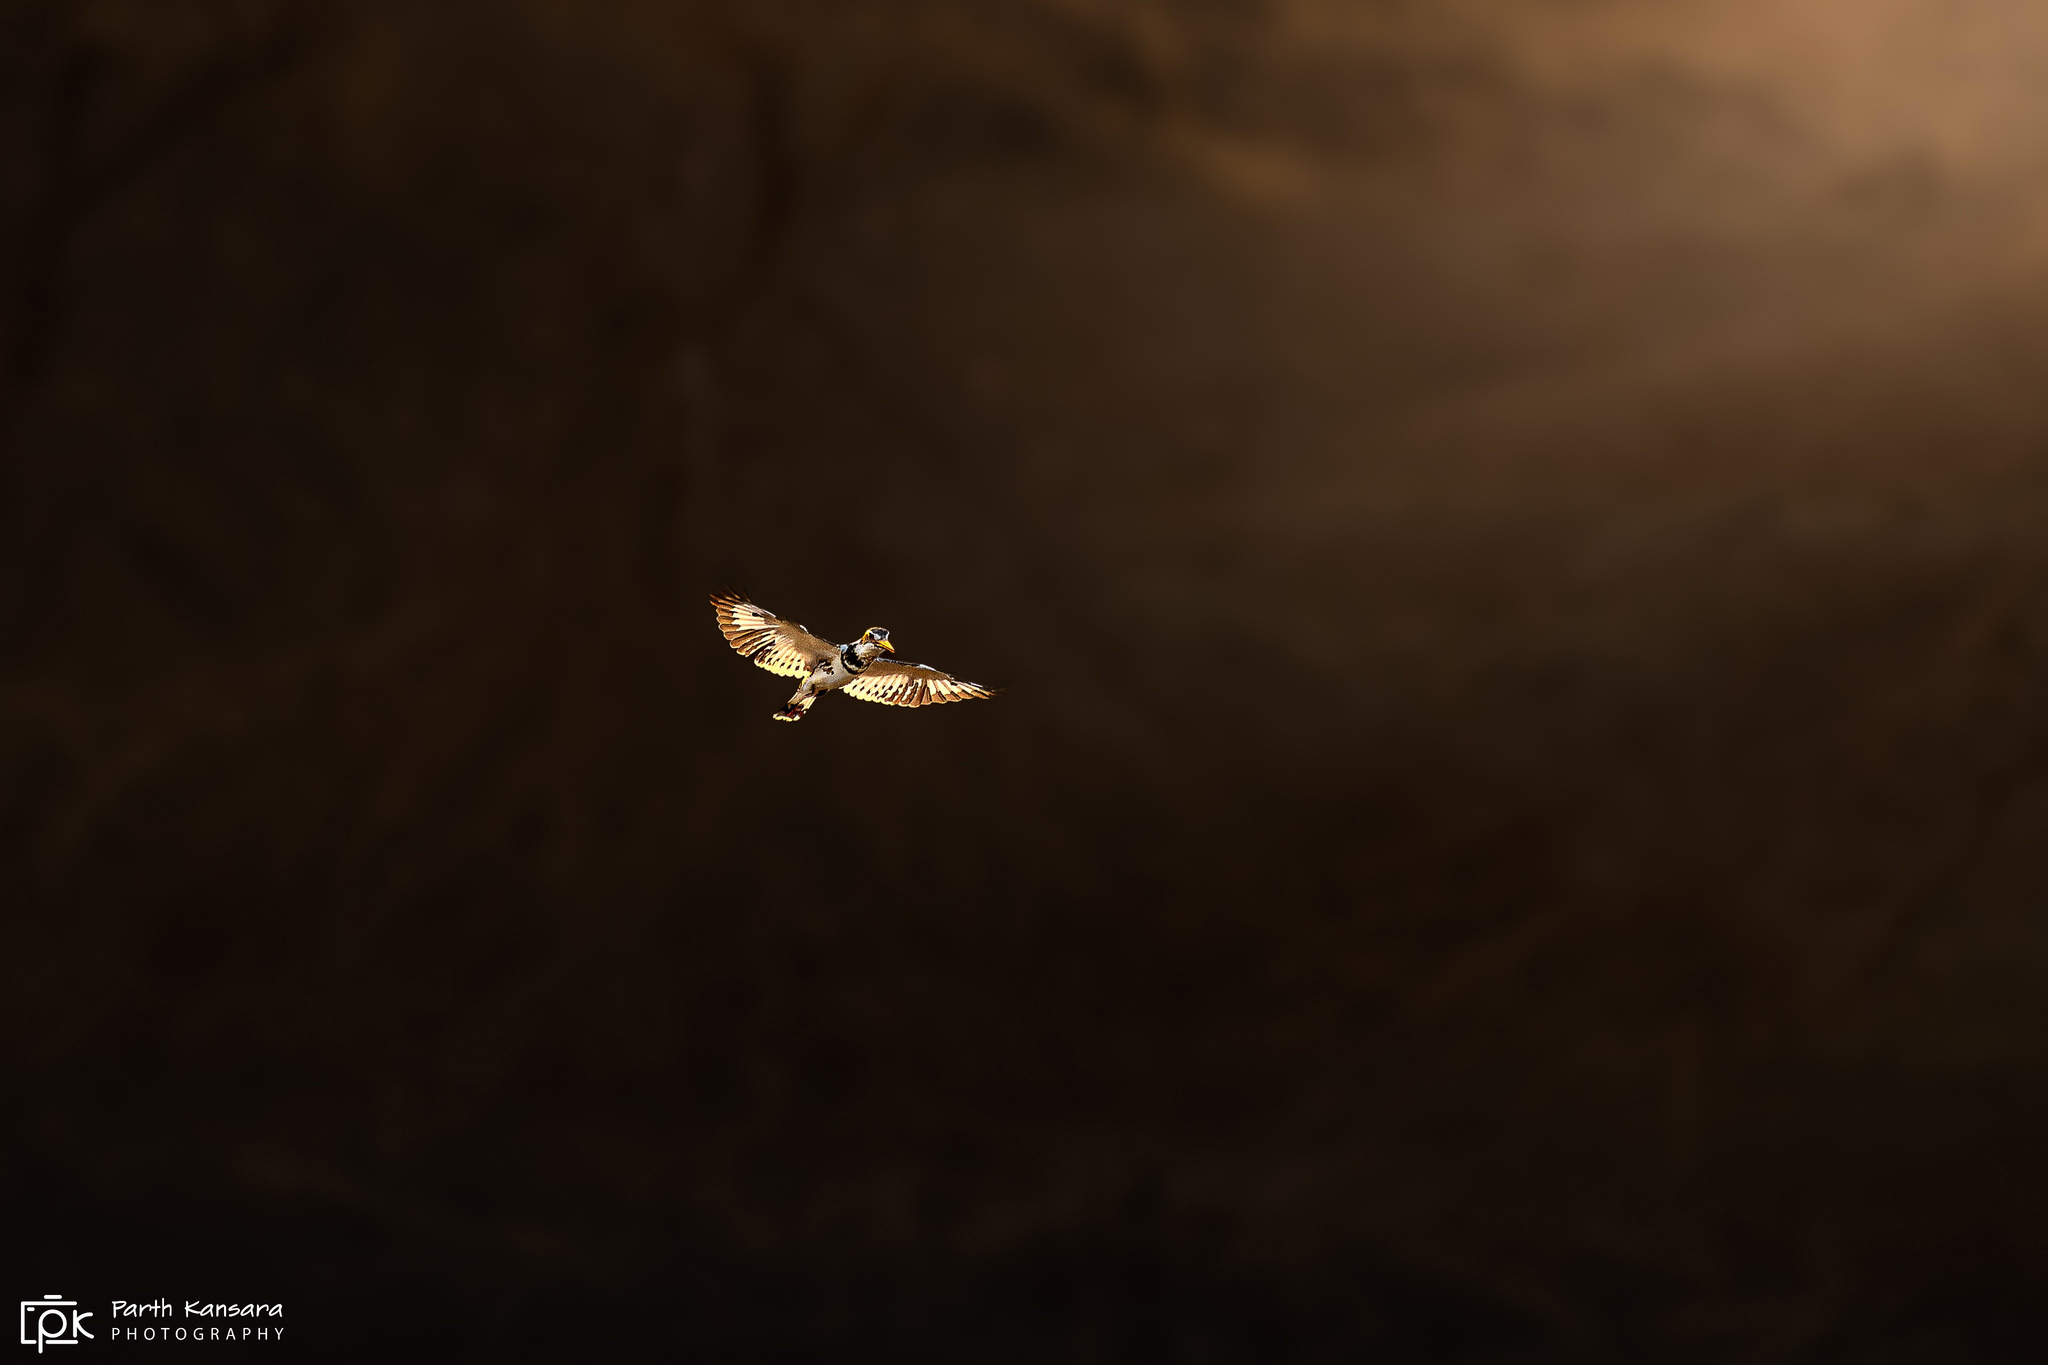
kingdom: Animalia
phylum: Chordata
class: Aves
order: Coraciiformes
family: Alcedinidae
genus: Ceryle
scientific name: Ceryle rudis
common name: Pied kingfisher
